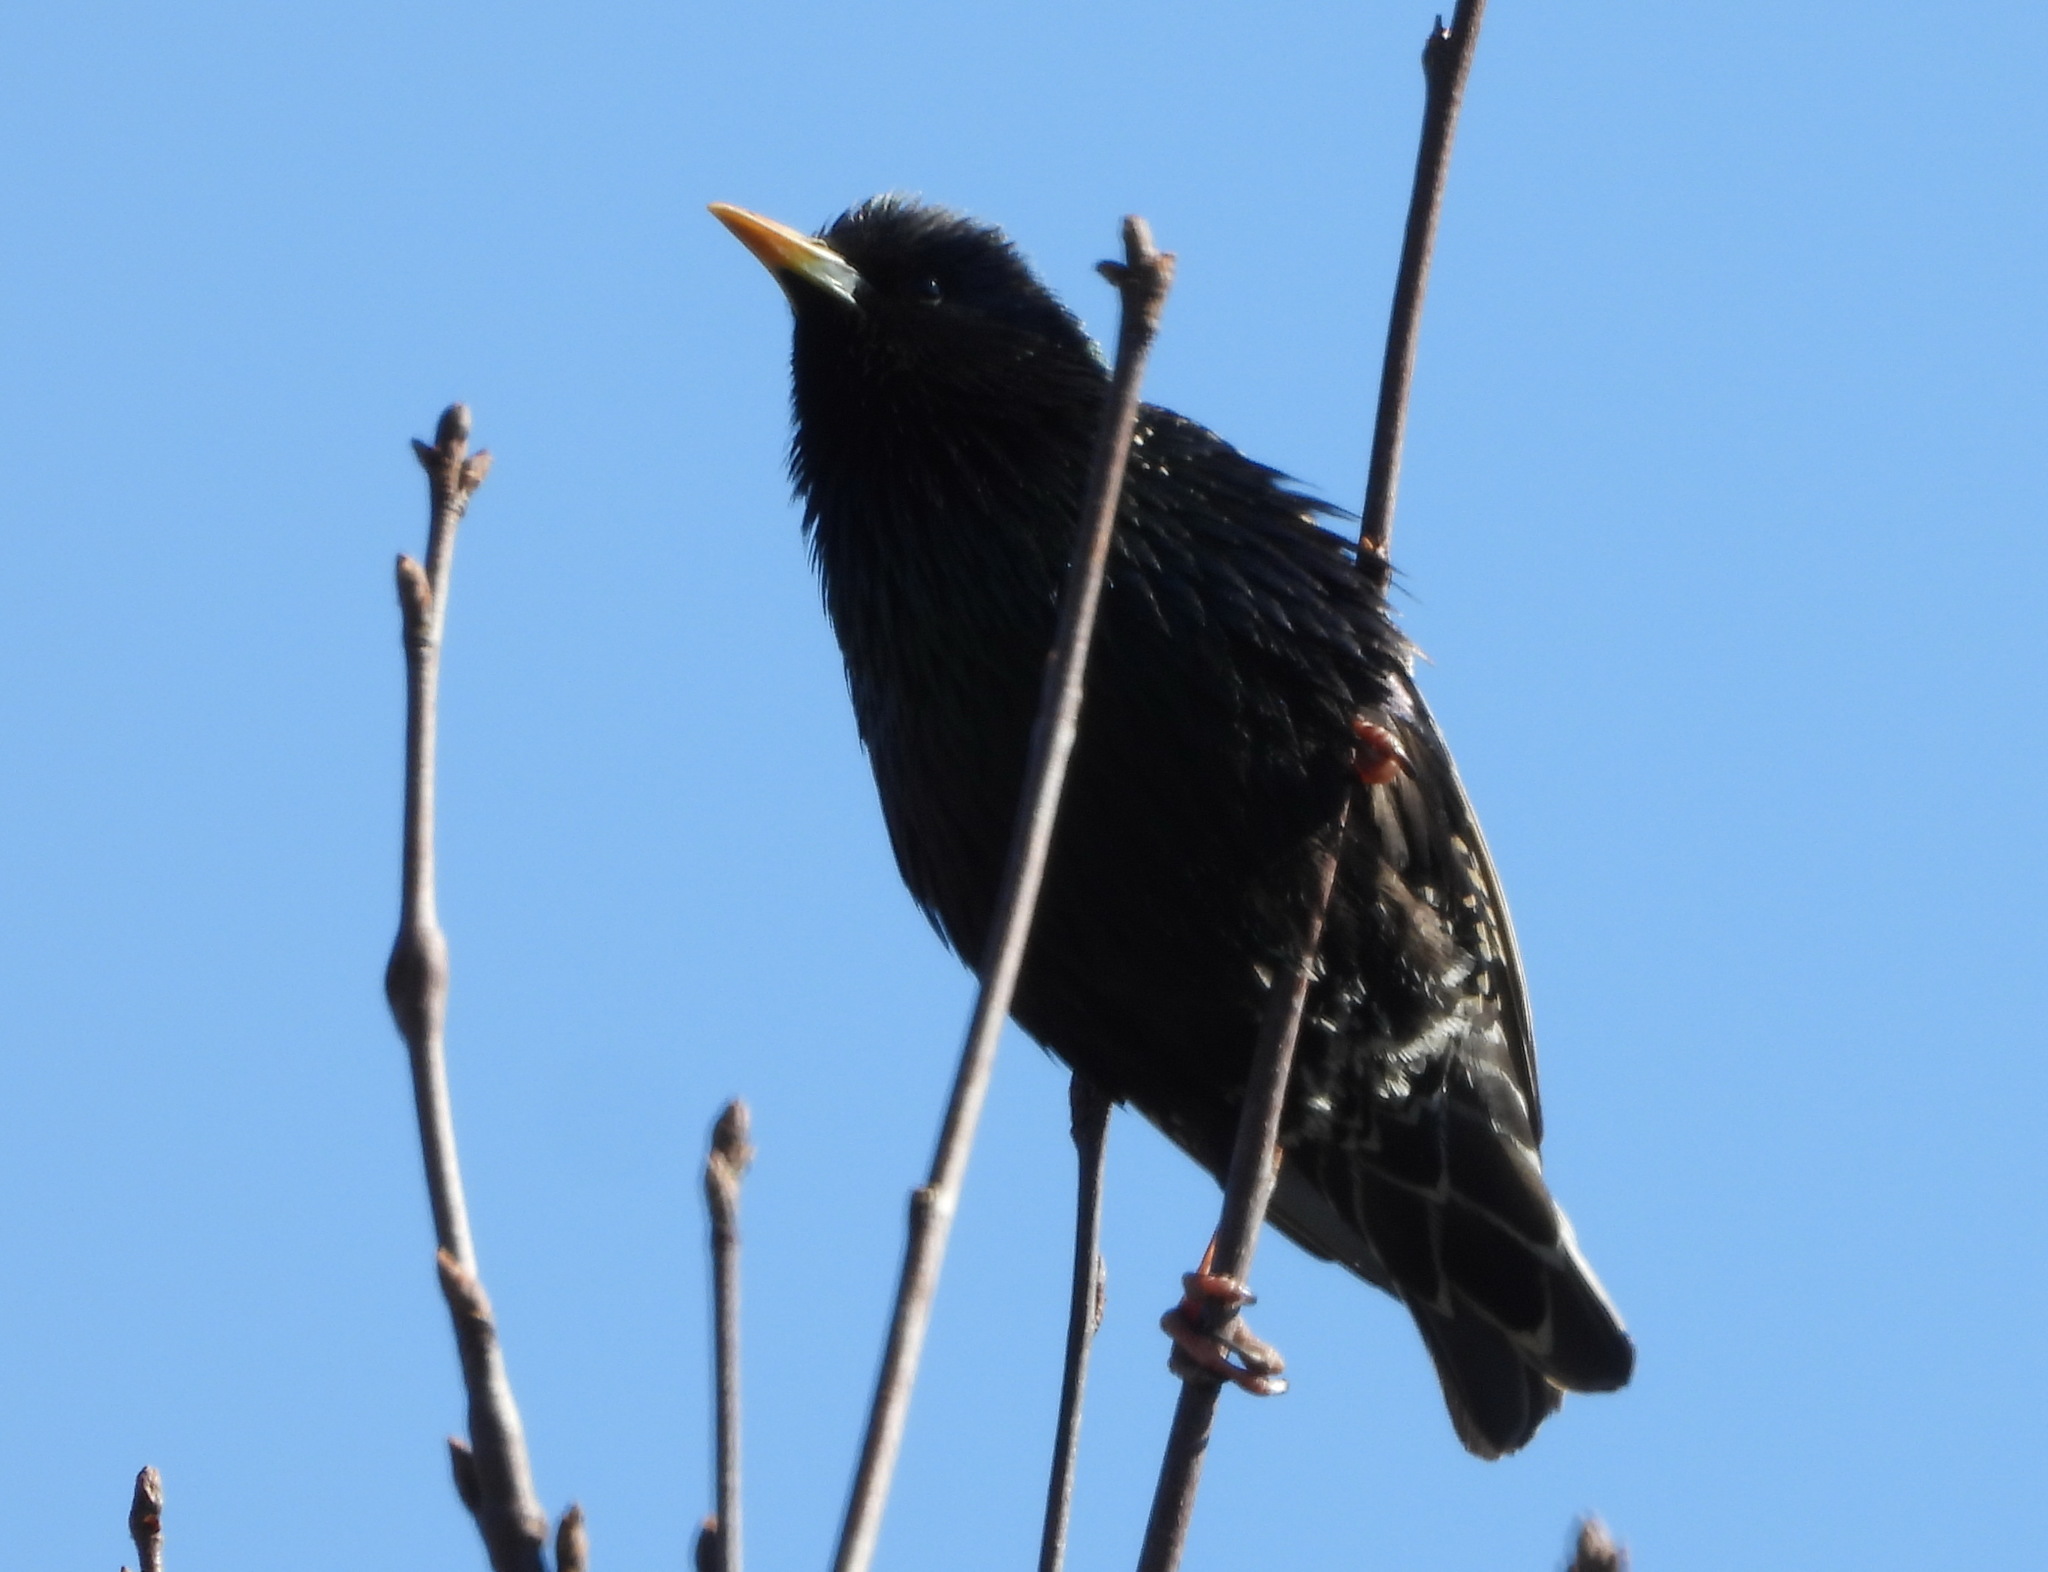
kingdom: Animalia
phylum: Chordata
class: Aves
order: Passeriformes
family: Sturnidae
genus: Sturnus
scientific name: Sturnus vulgaris
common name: Common starling
